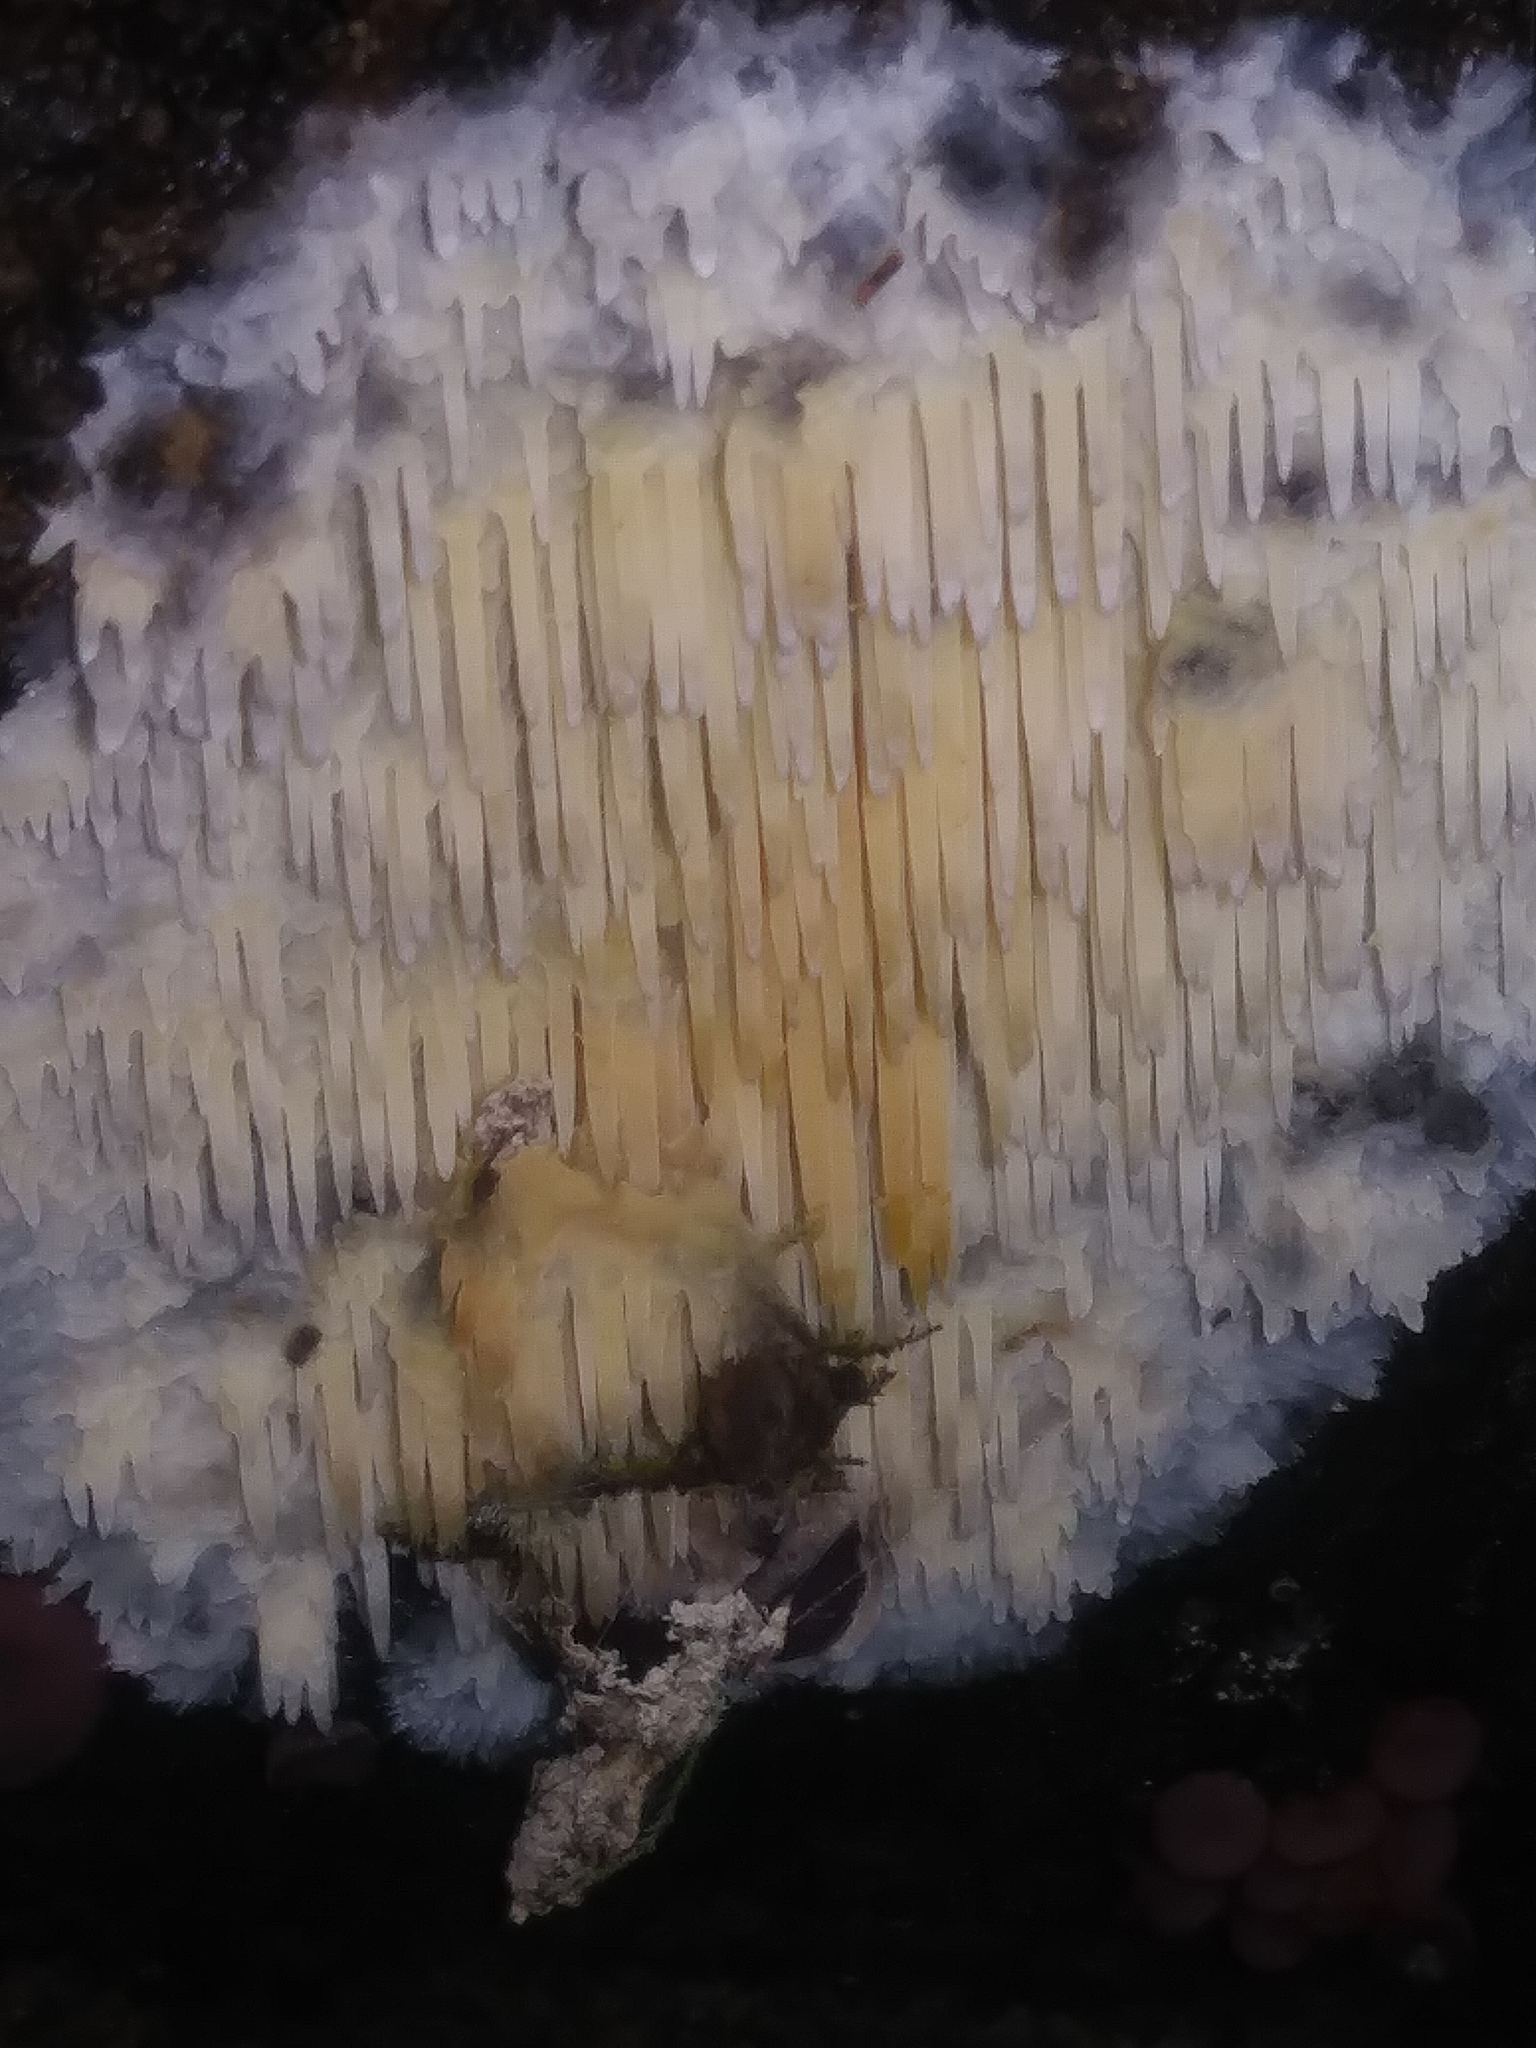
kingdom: Fungi
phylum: Basidiomycota
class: Agaricomycetes
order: Agaricales
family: Radulomycetaceae
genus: Radulomyces
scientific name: Radulomyces copelandii
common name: Asian beauty
